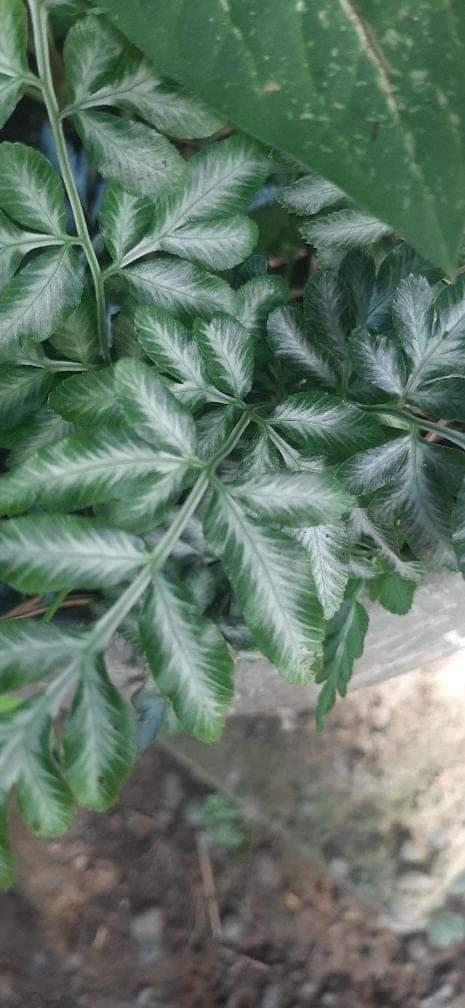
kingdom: Plantae
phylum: Tracheophyta
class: Polypodiopsida
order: Polypodiales
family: Pteridaceae
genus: Pteris
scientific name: Pteris ensiformis
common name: Sword brake
